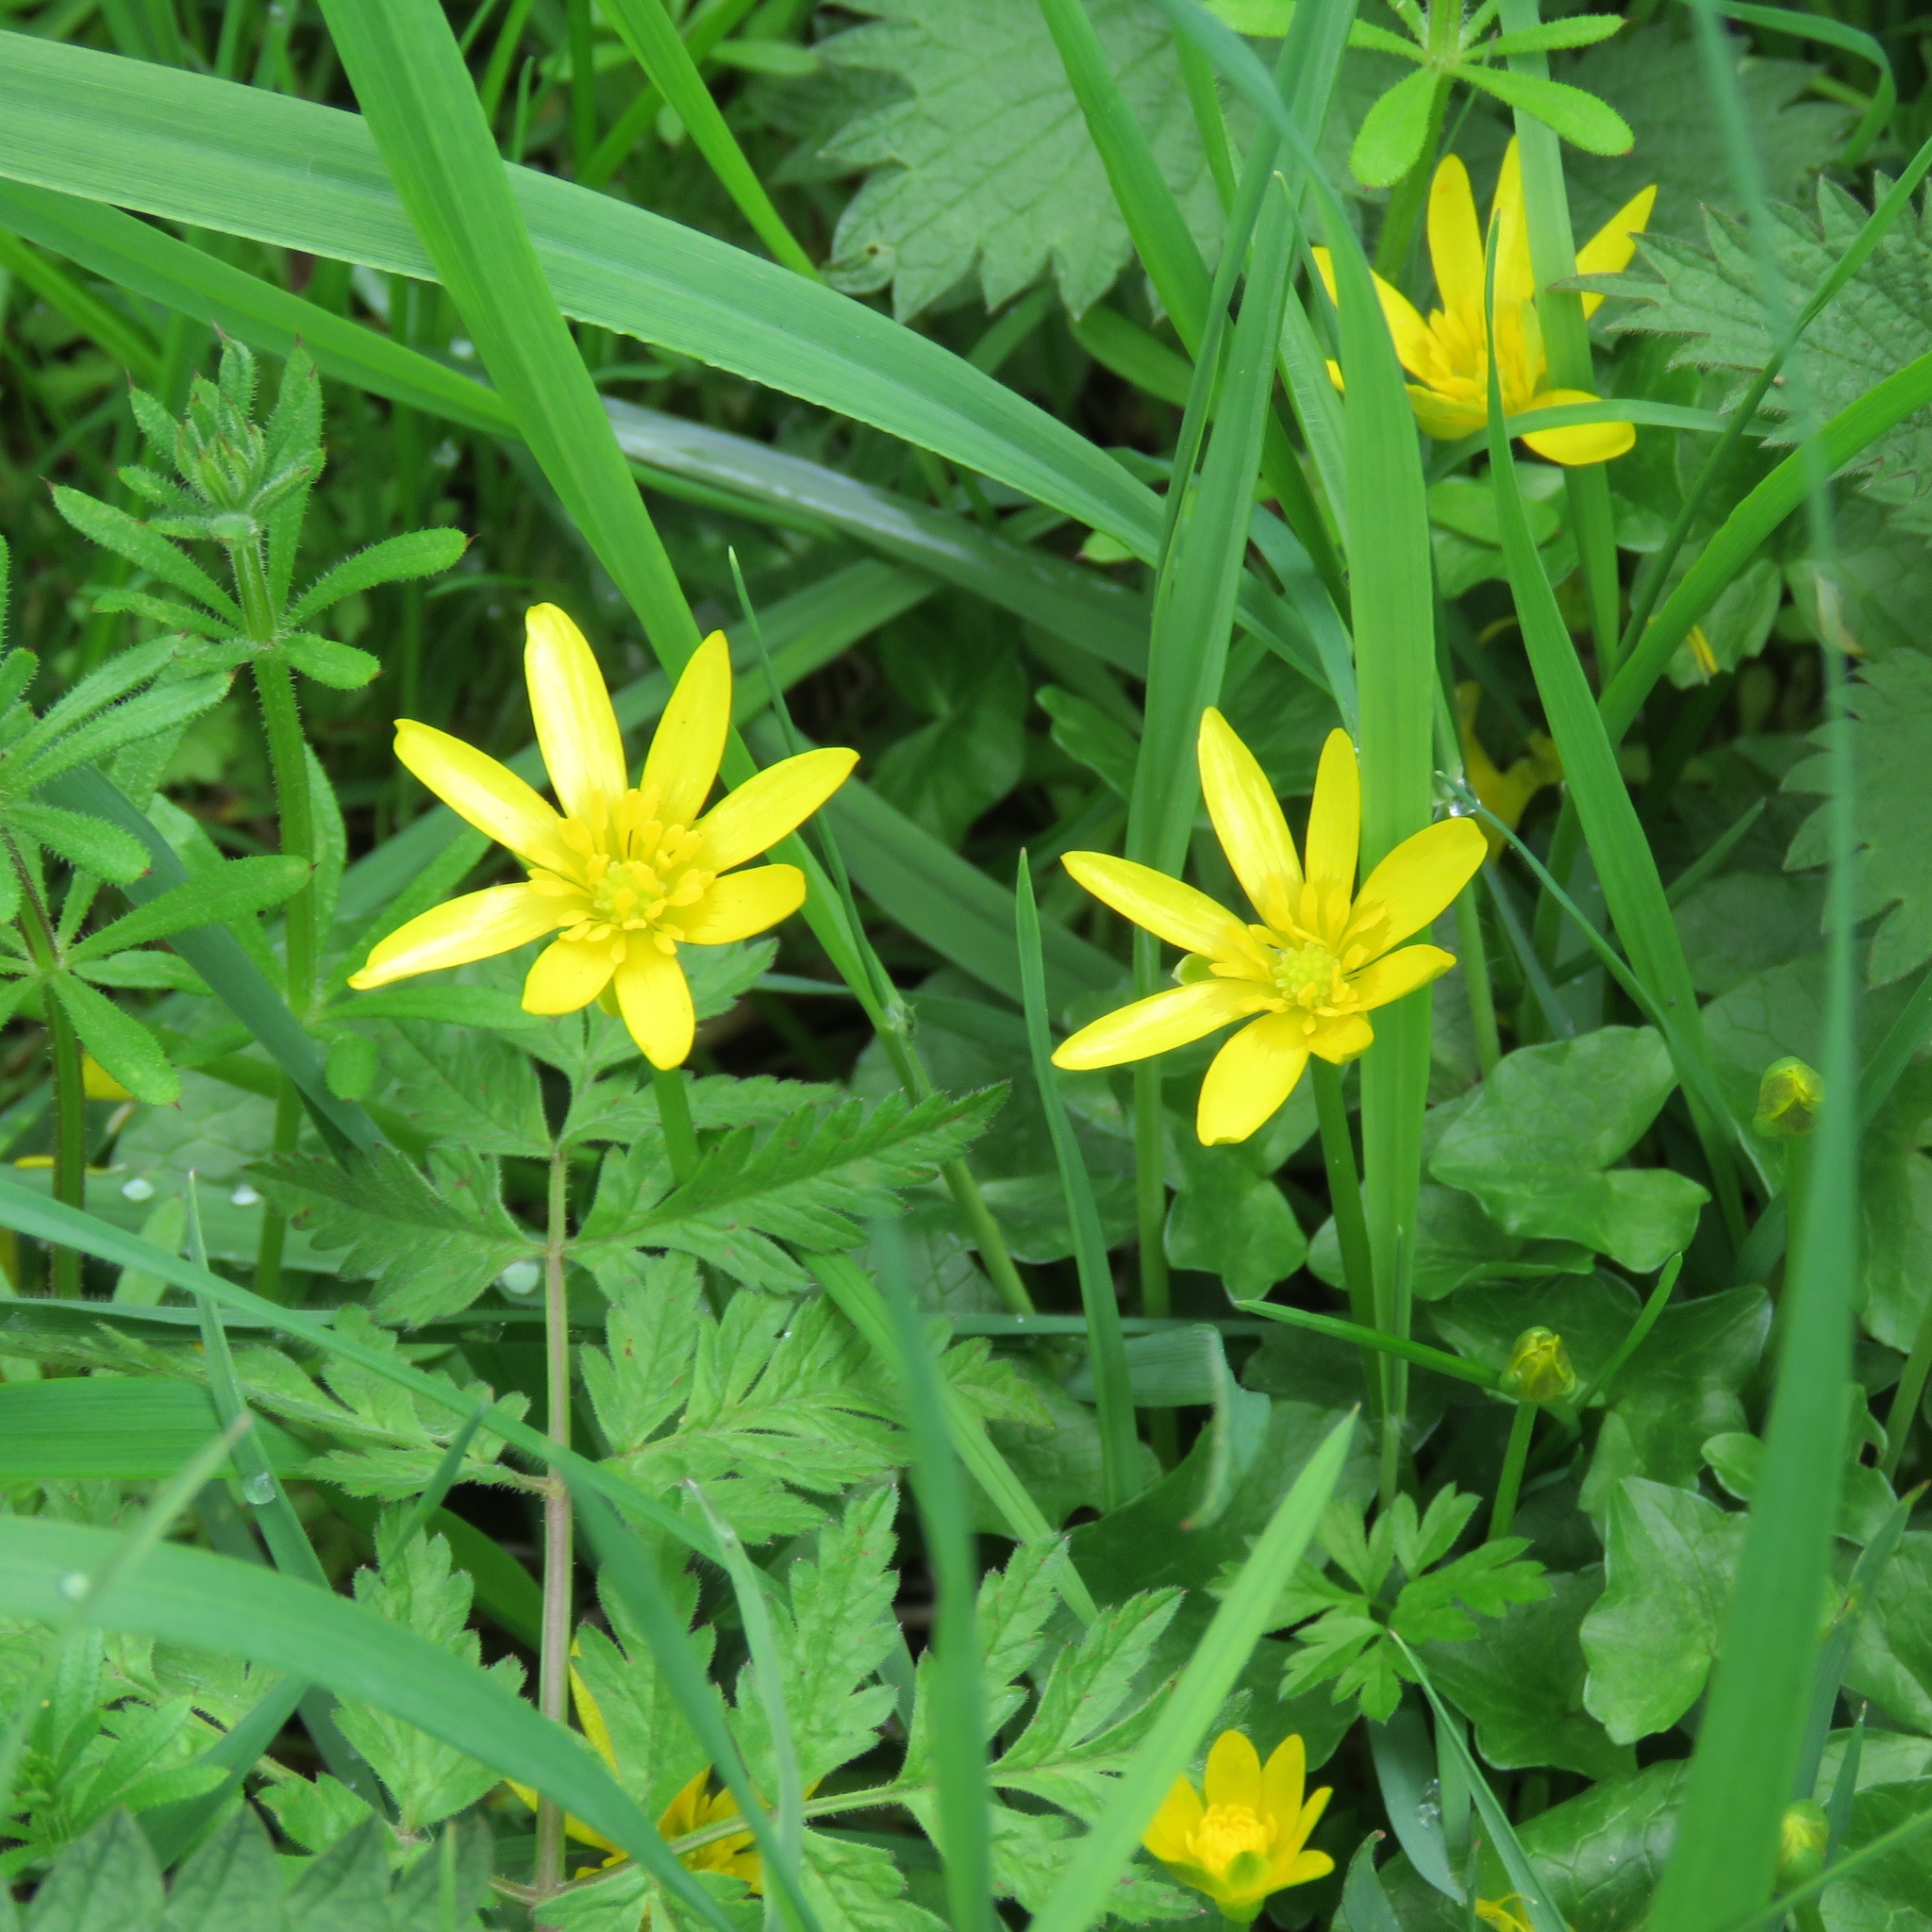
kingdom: Plantae
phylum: Tracheophyta
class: Magnoliopsida
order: Ranunculales
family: Ranunculaceae
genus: Ficaria
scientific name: Ficaria verna
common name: Lesser celandine
